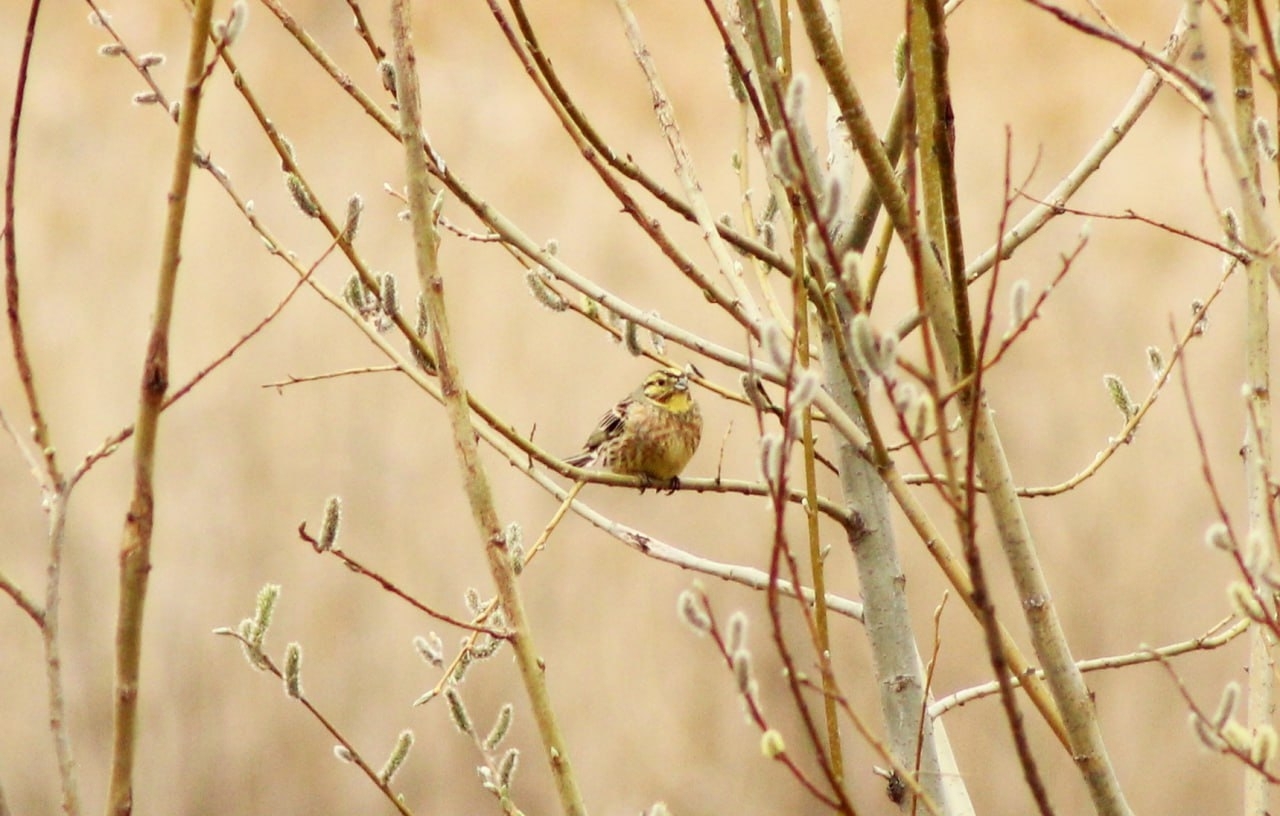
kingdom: Animalia
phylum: Chordata
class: Aves
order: Passeriformes
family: Emberizidae
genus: Emberiza
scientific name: Emberiza citrinella
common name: Yellowhammer
